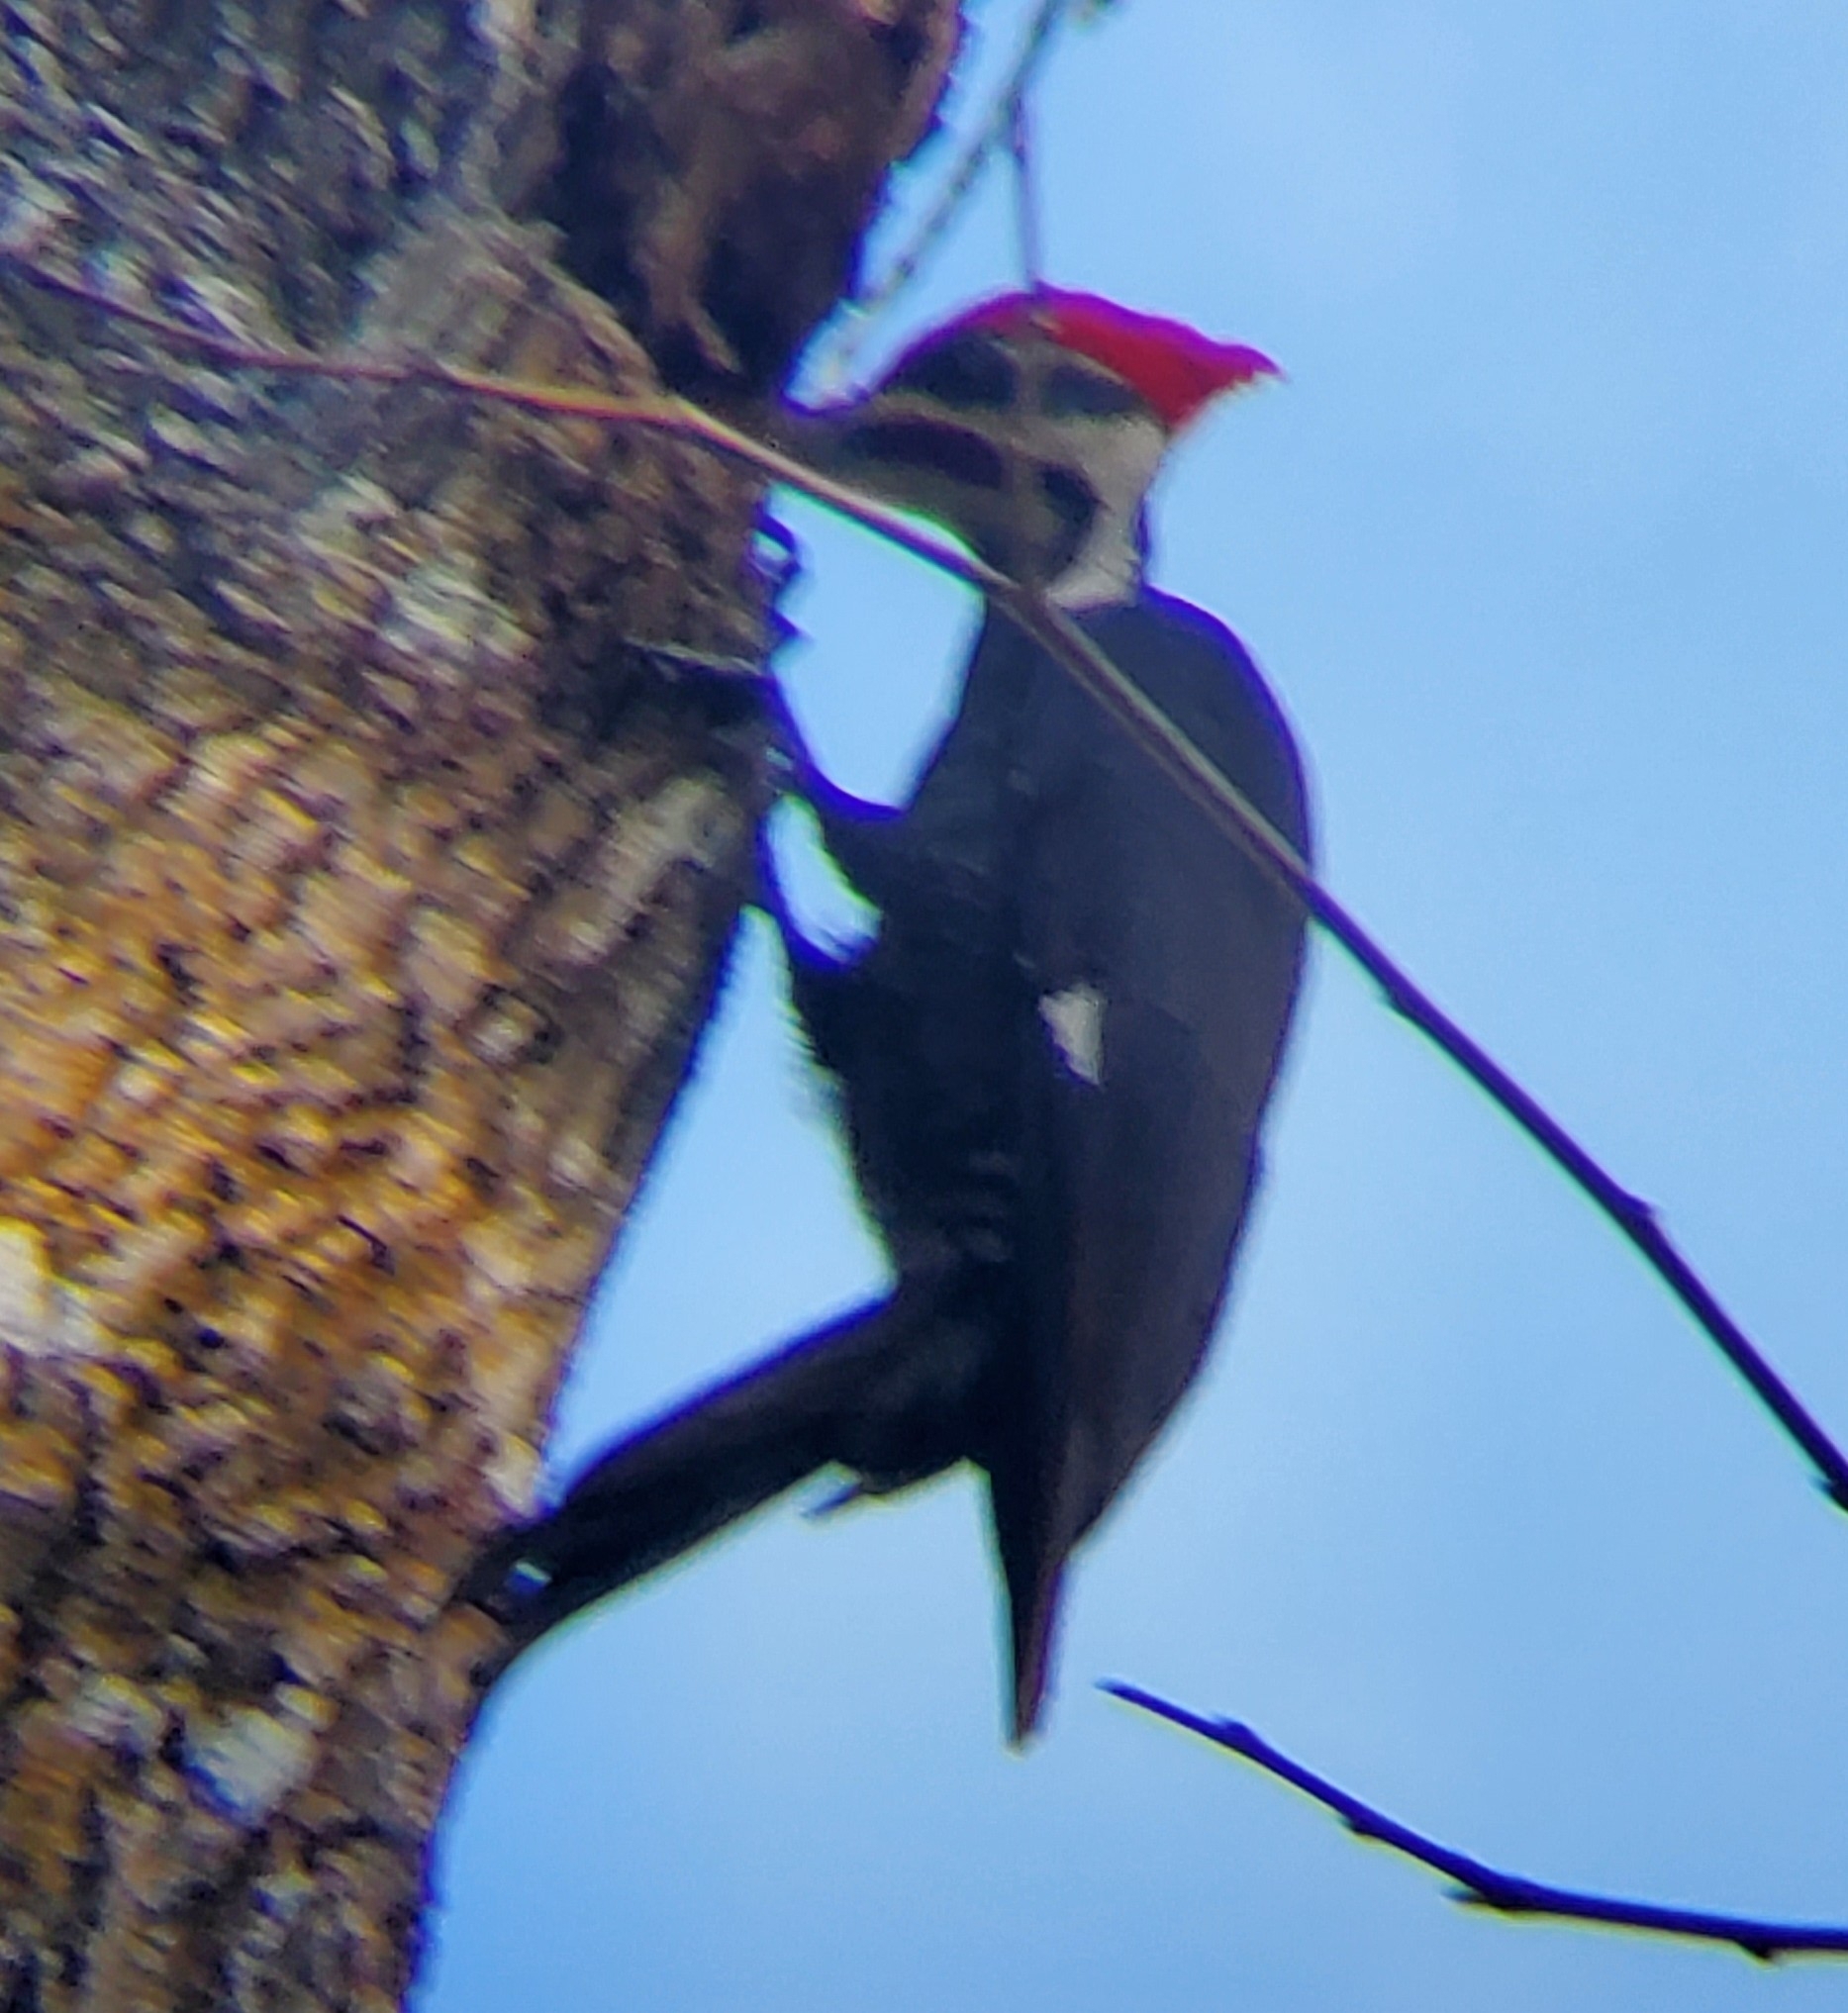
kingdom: Animalia
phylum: Chordata
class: Aves
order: Piciformes
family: Picidae
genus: Dryocopus
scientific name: Dryocopus pileatus
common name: Pileated woodpecker
